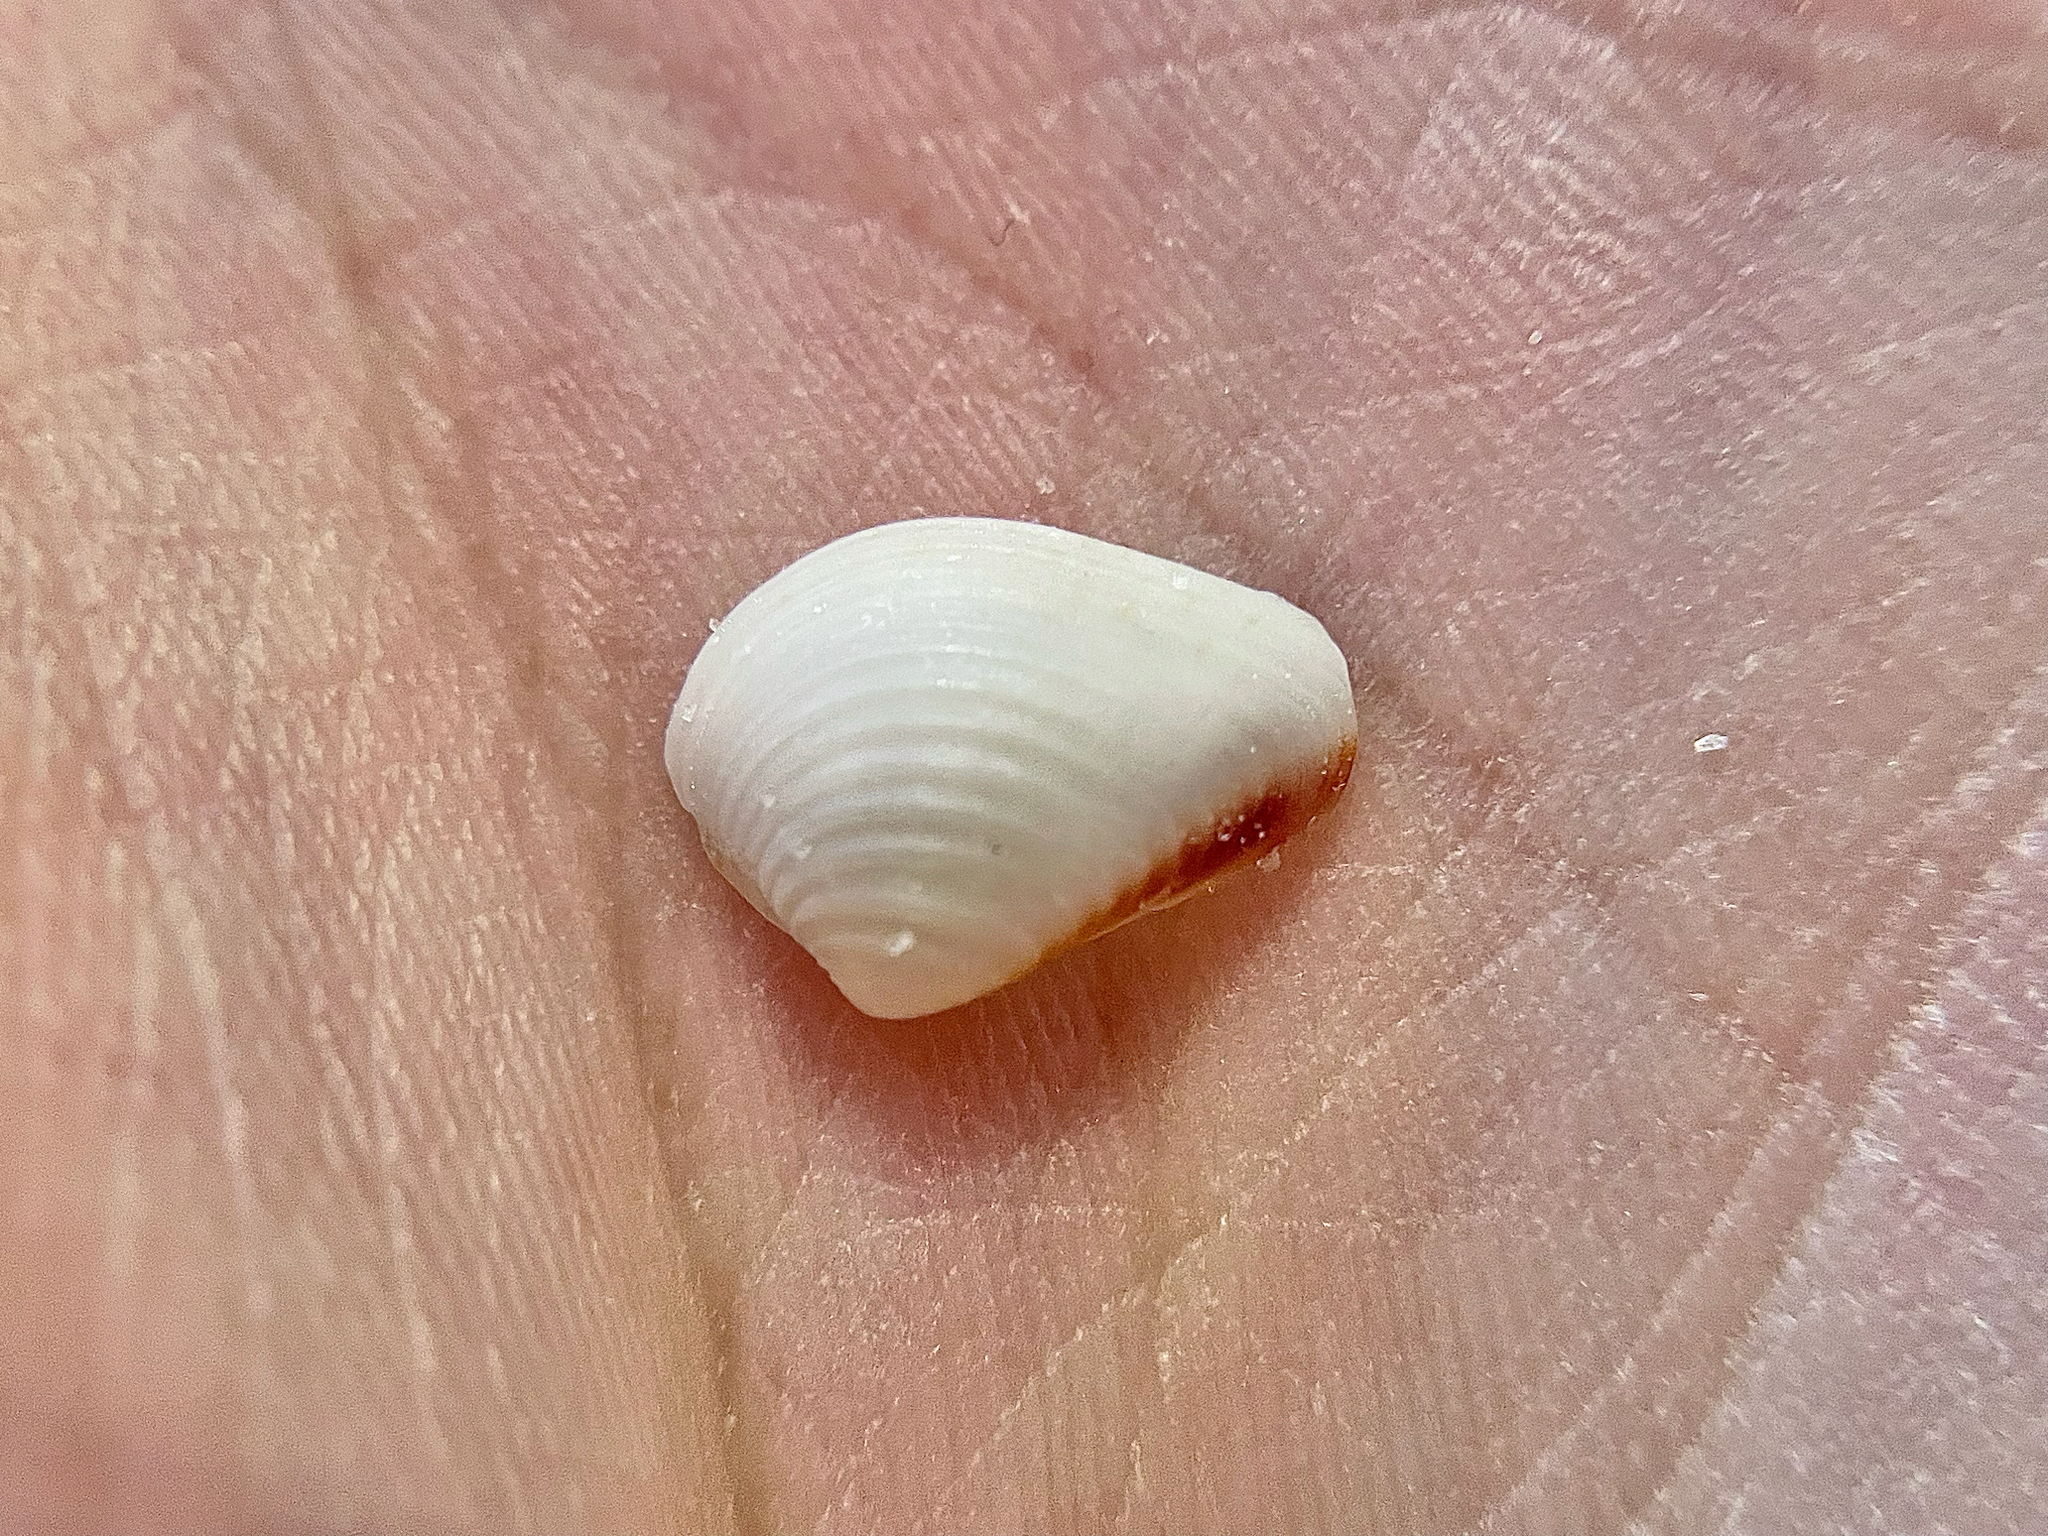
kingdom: Animalia
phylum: Mollusca
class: Bivalvia
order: Venerida
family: Veneridae
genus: Anomalocardia
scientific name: Anomalocardia cuneimeris
